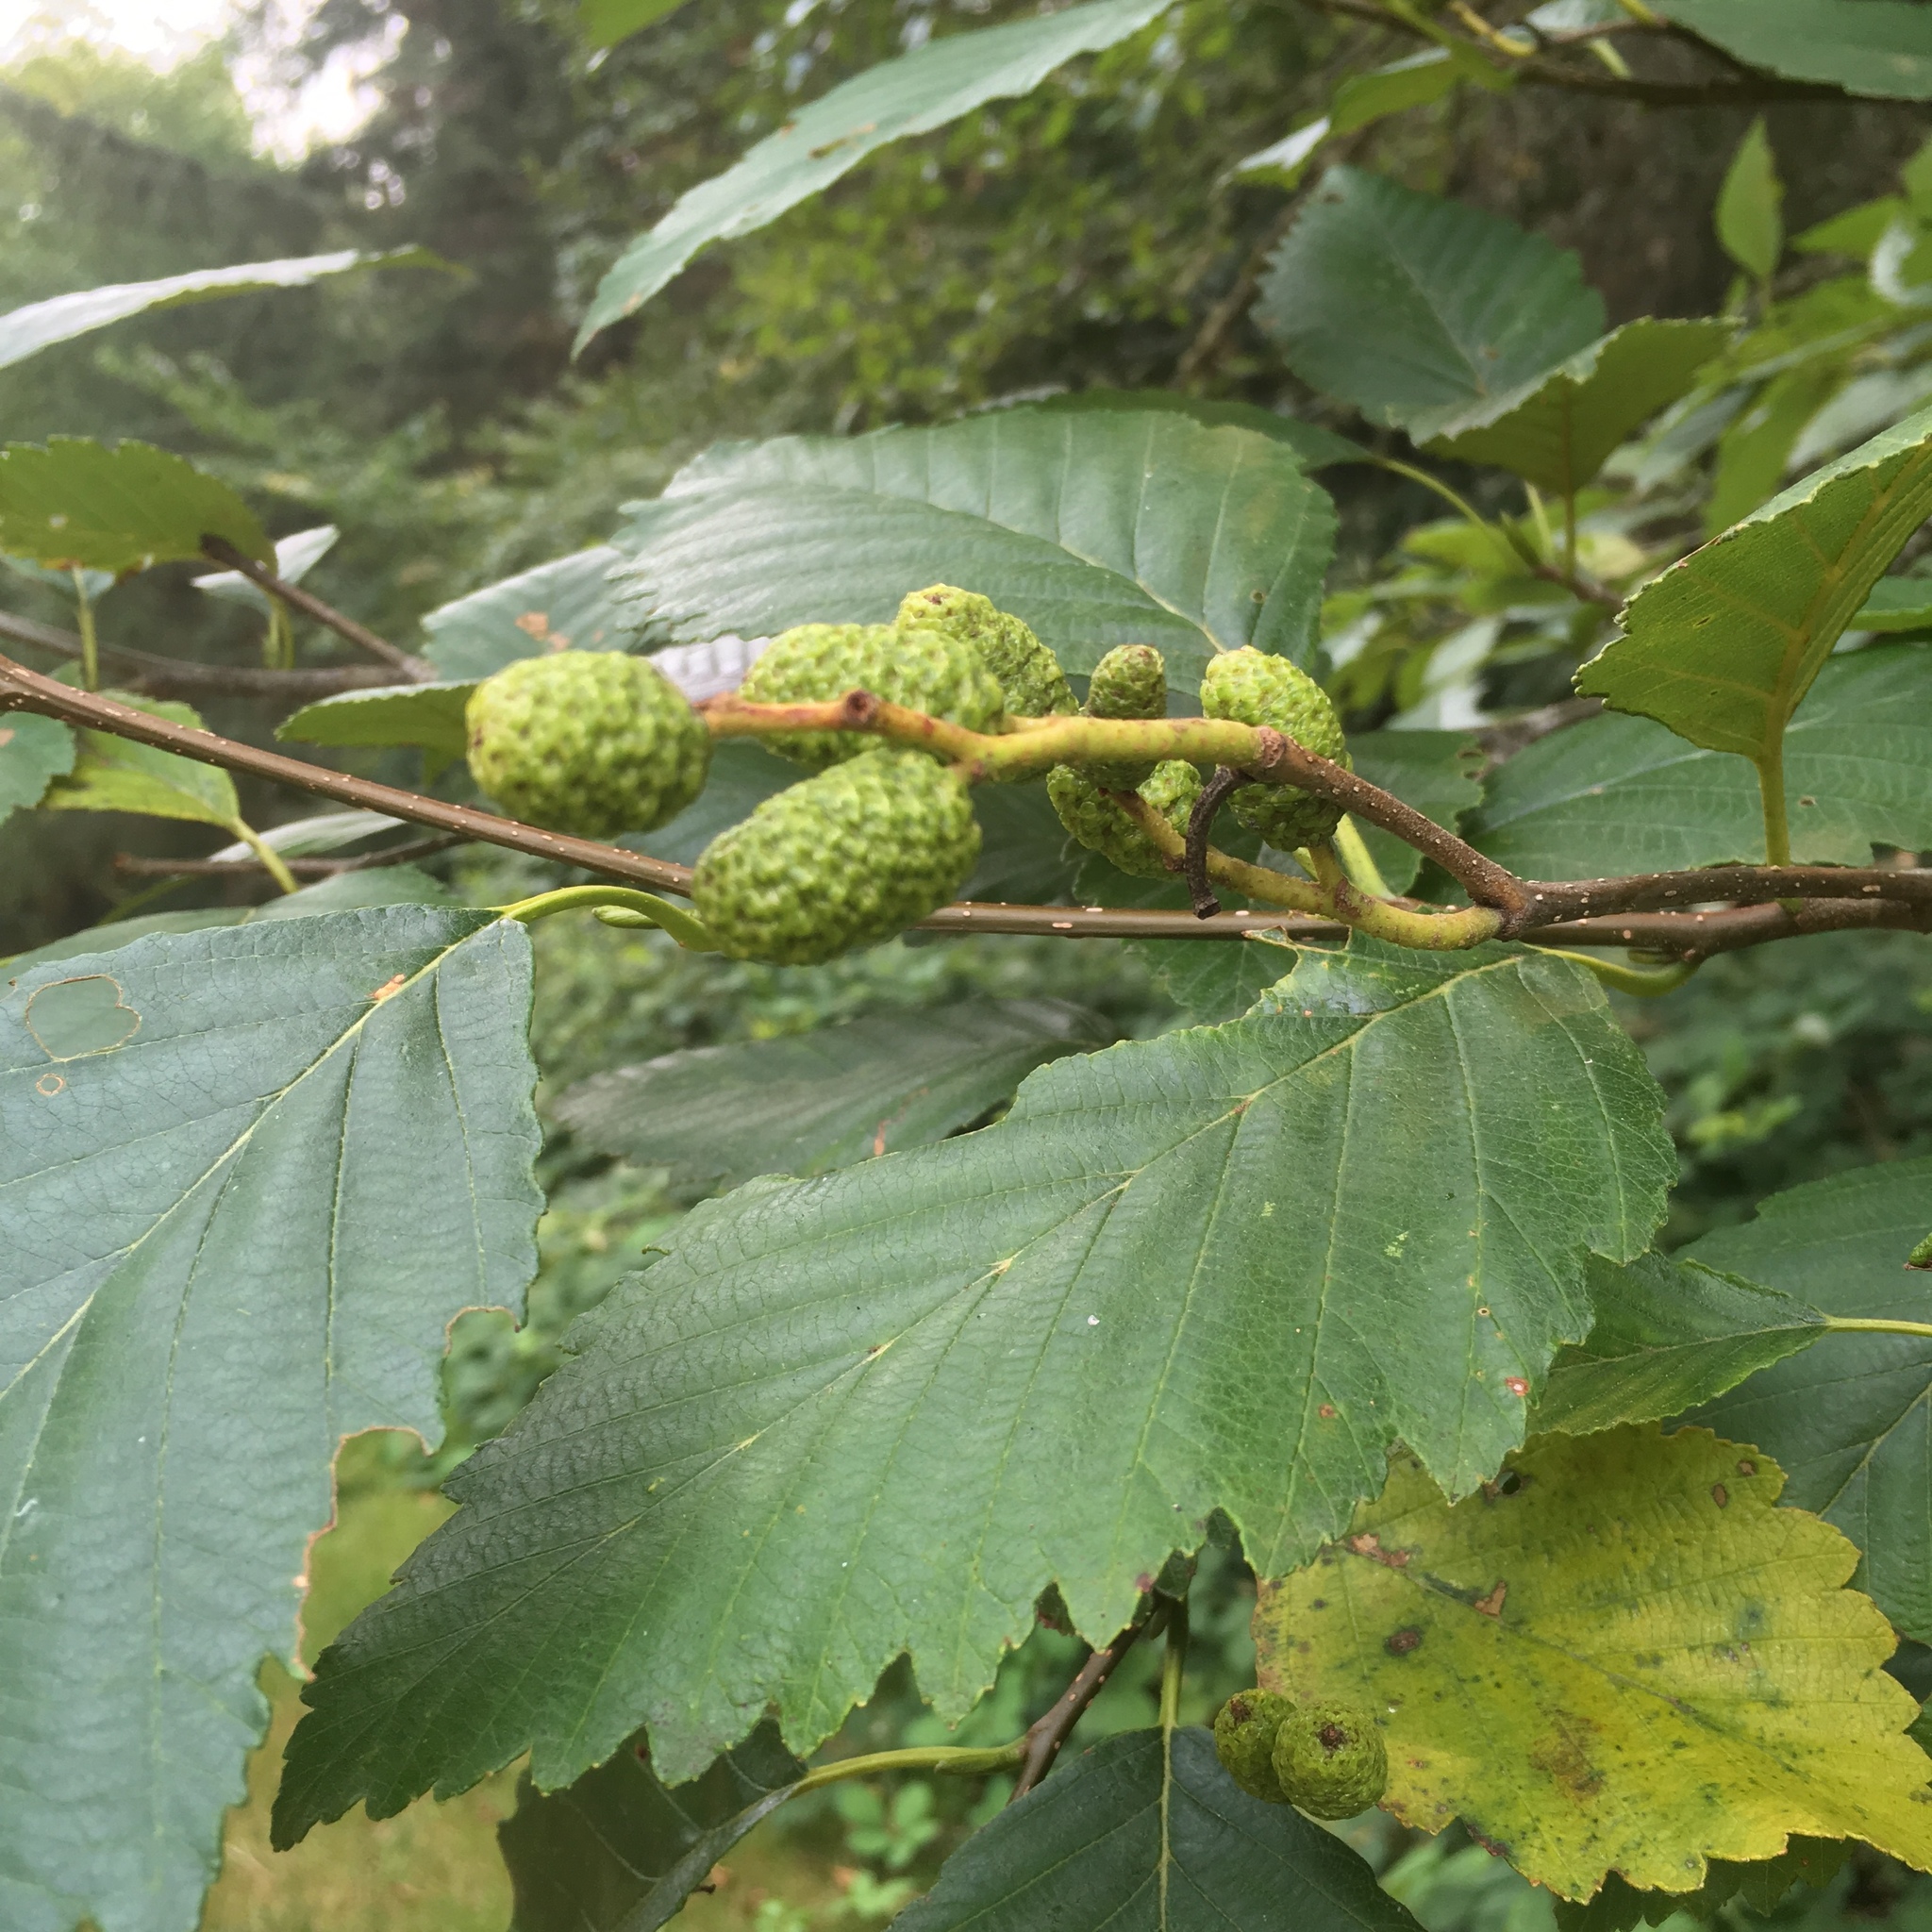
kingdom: Plantae
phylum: Tracheophyta
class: Magnoliopsida
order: Fagales
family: Betulaceae
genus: Alnus
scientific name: Alnus rubra
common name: Red alder
